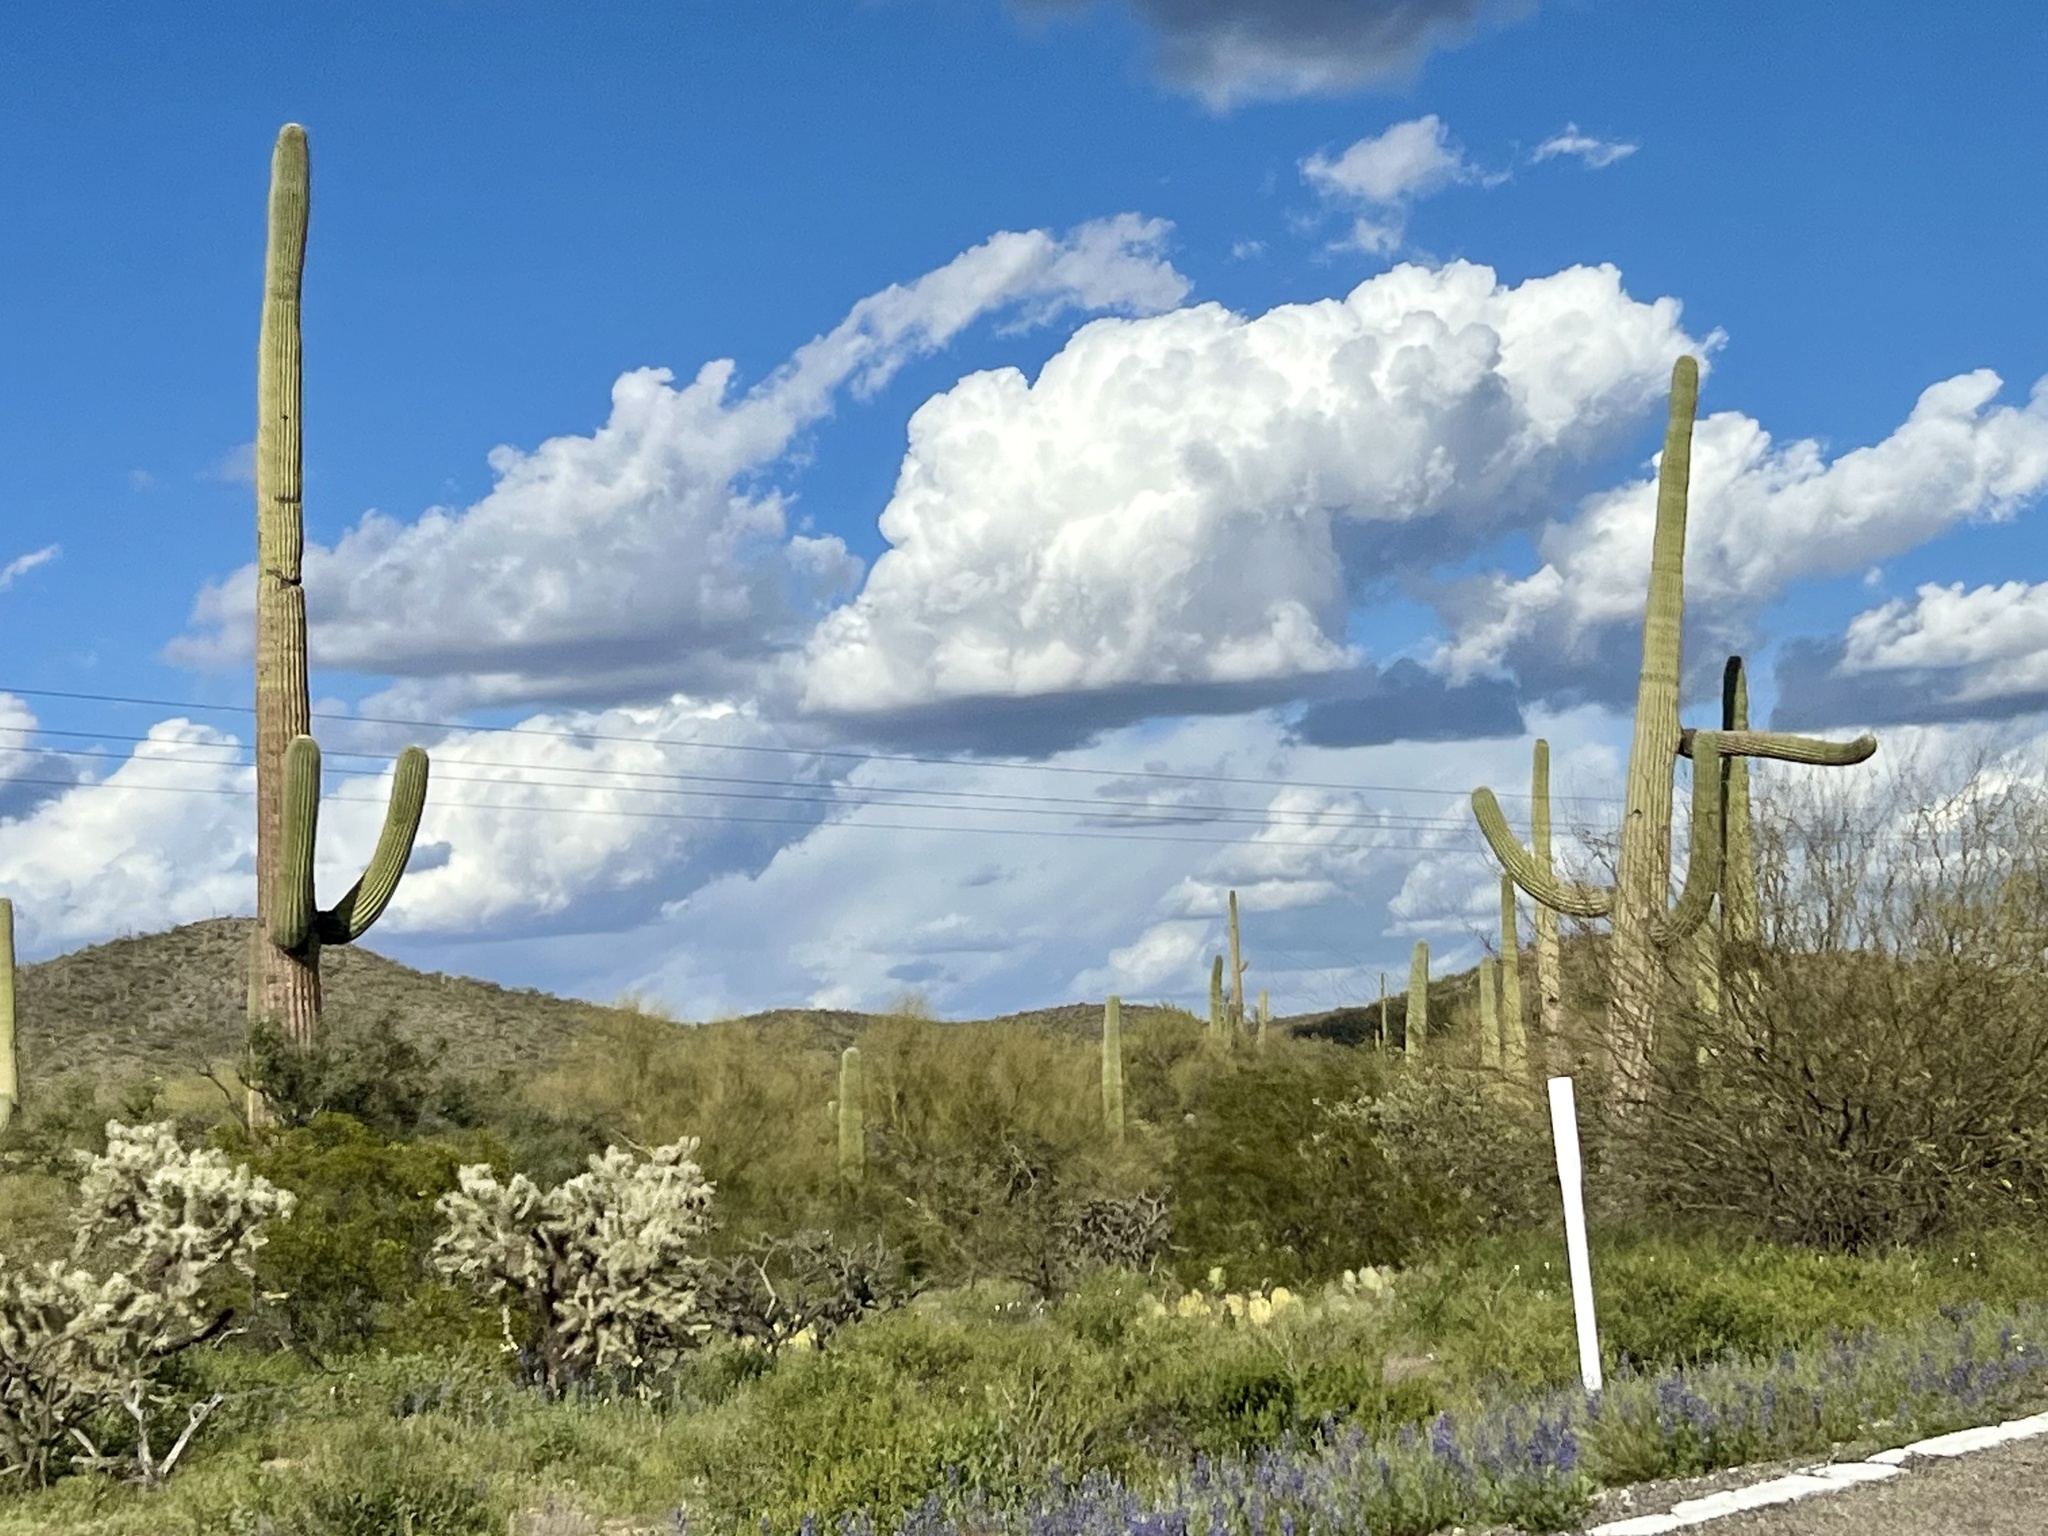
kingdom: Plantae
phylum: Tracheophyta
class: Magnoliopsida
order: Caryophyllales
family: Cactaceae
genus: Carnegiea
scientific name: Carnegiea gigantea
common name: Saguaro
